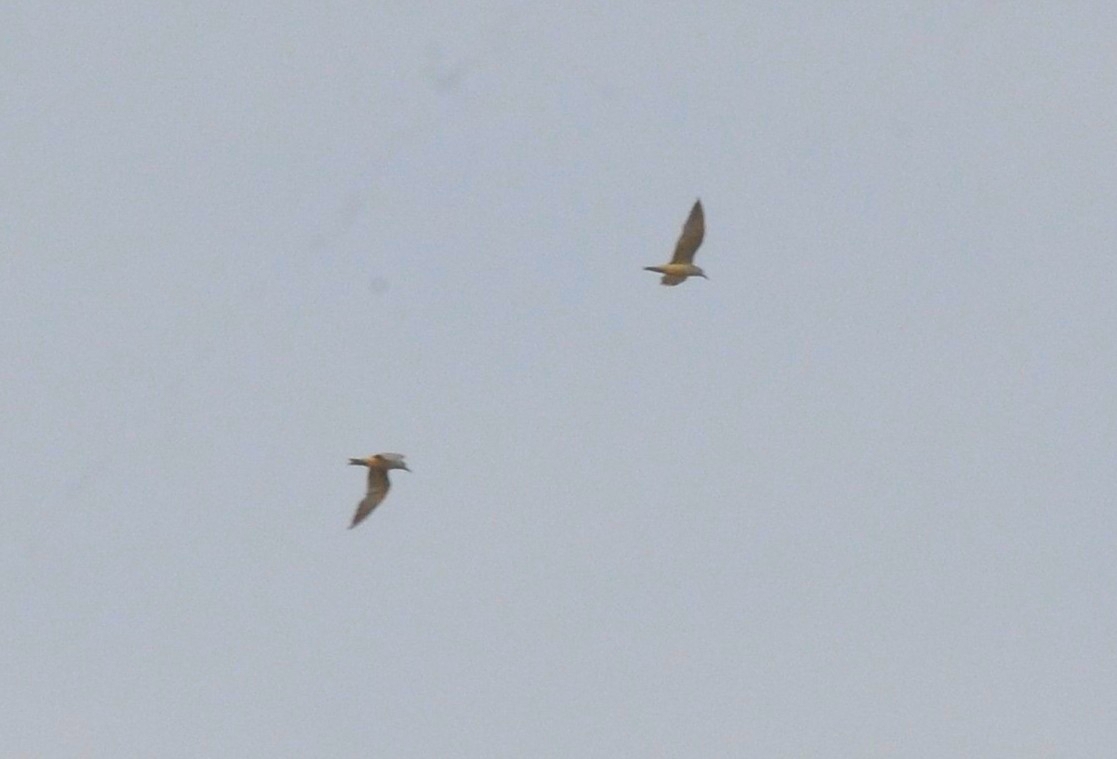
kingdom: Animalia
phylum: Chordata
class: Aves
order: Charadriiformes
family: Laridae
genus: Chlidonias
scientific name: Chlidonias hybrida
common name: Whiskered tern
